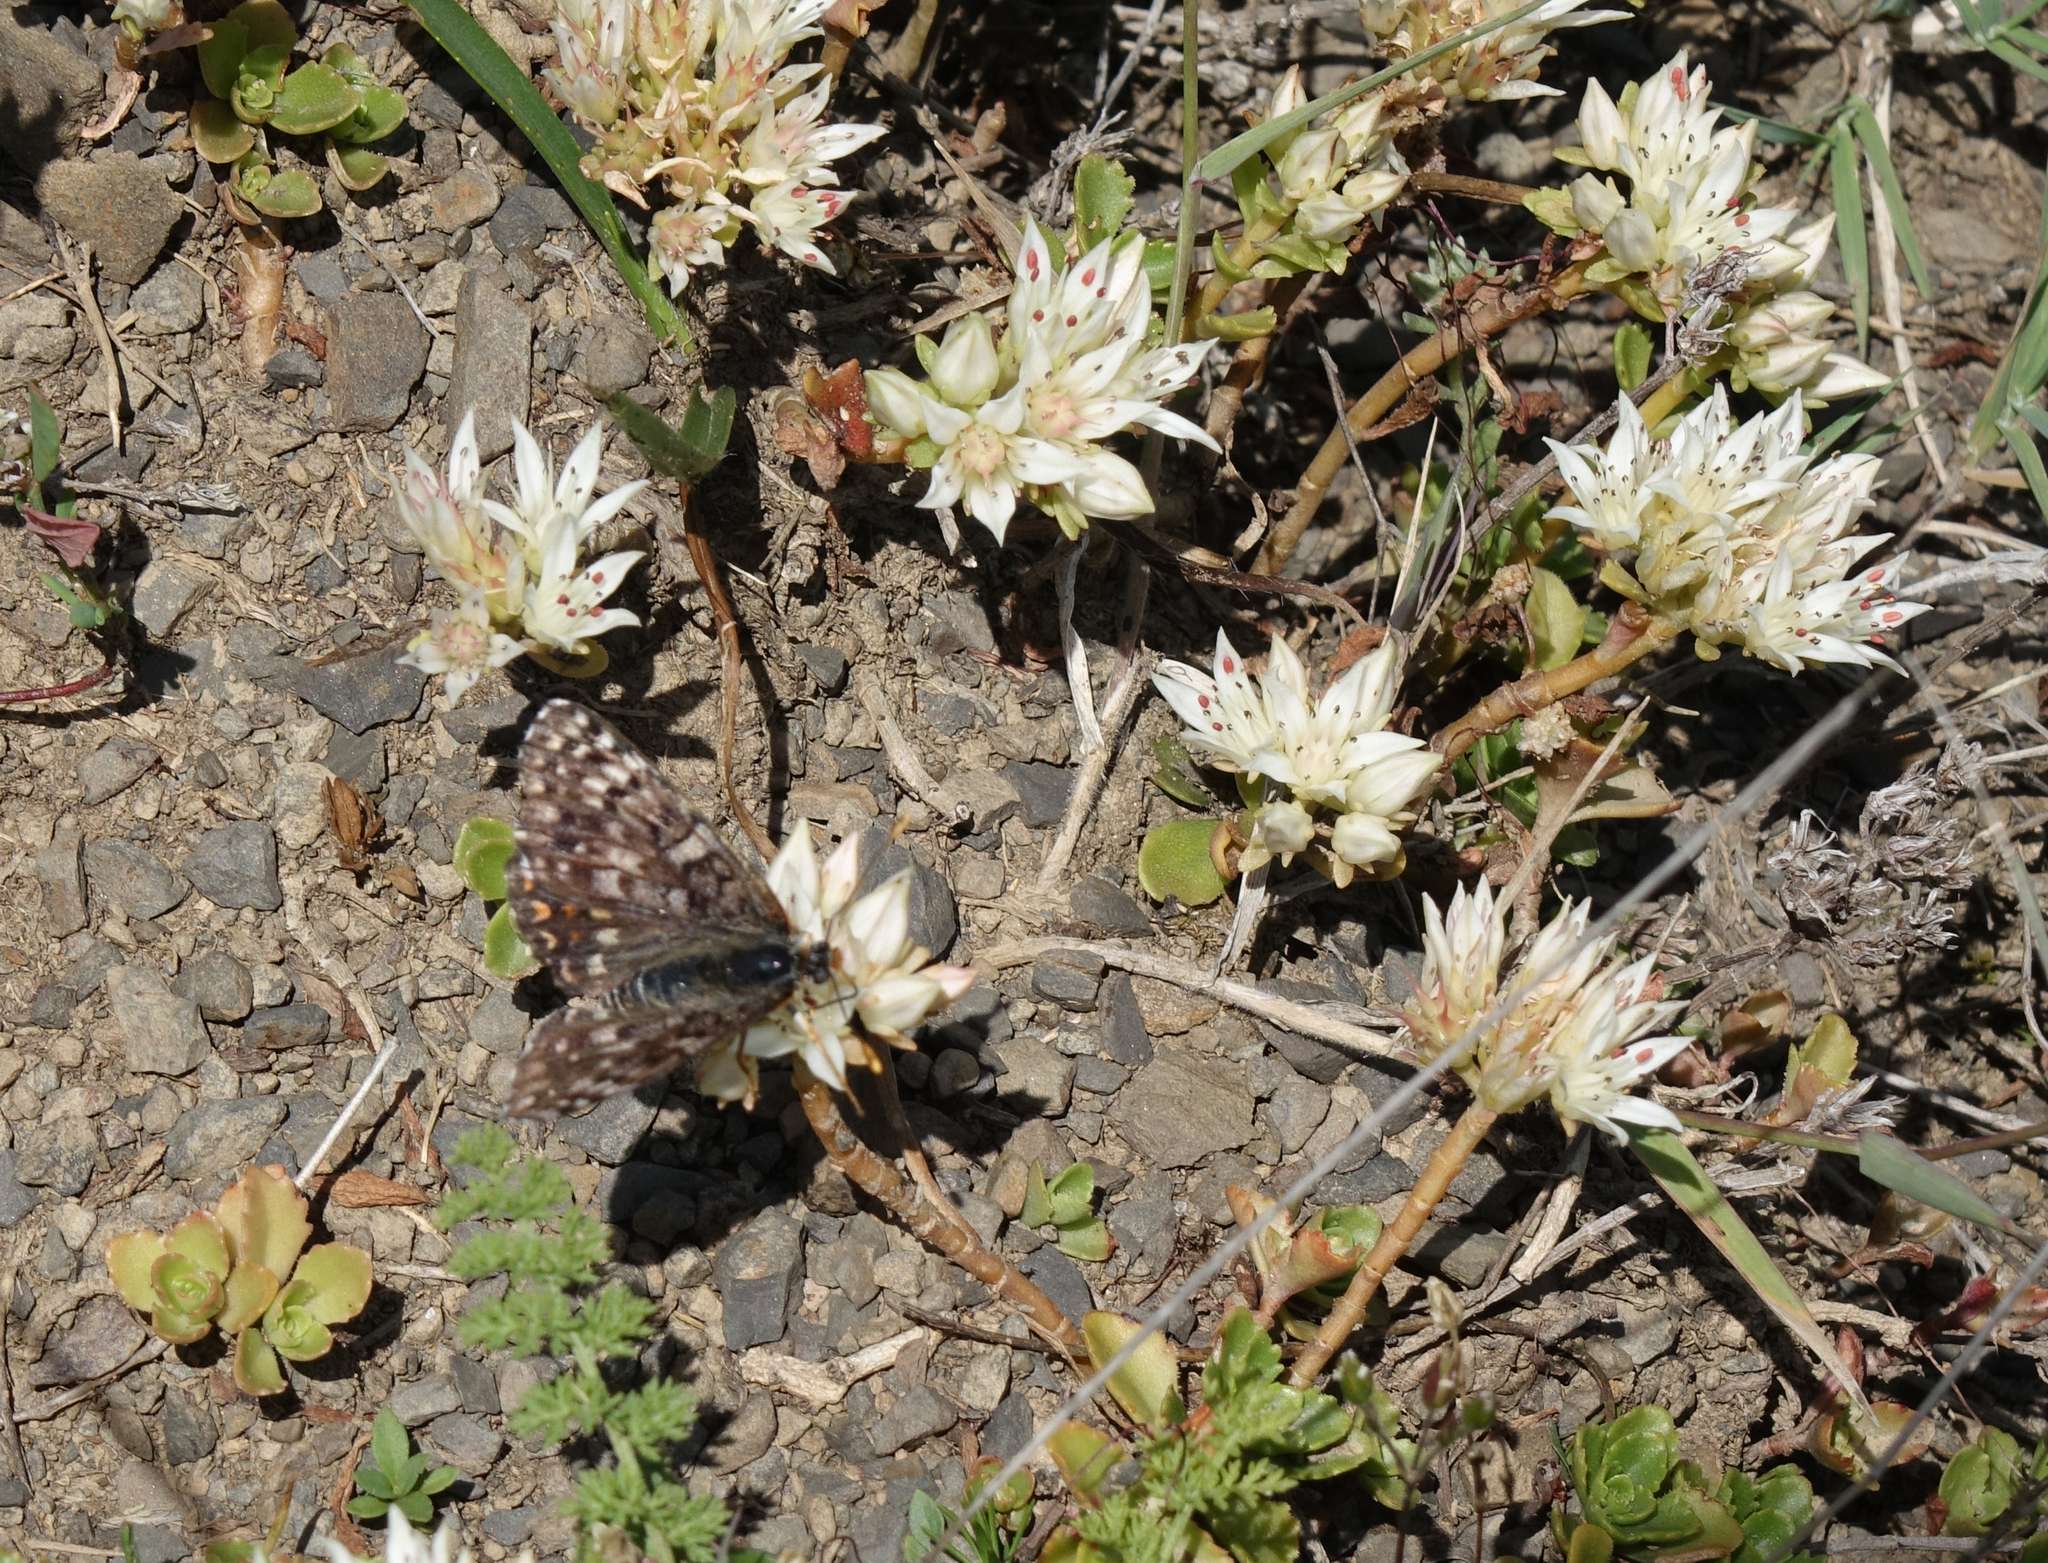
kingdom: Plantae
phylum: Tracheophyta
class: Magnoliopsida
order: Saxifragales
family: Crassulaceae
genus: Phedimus
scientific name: Phedimus spurius
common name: Caucasian stonecrop
